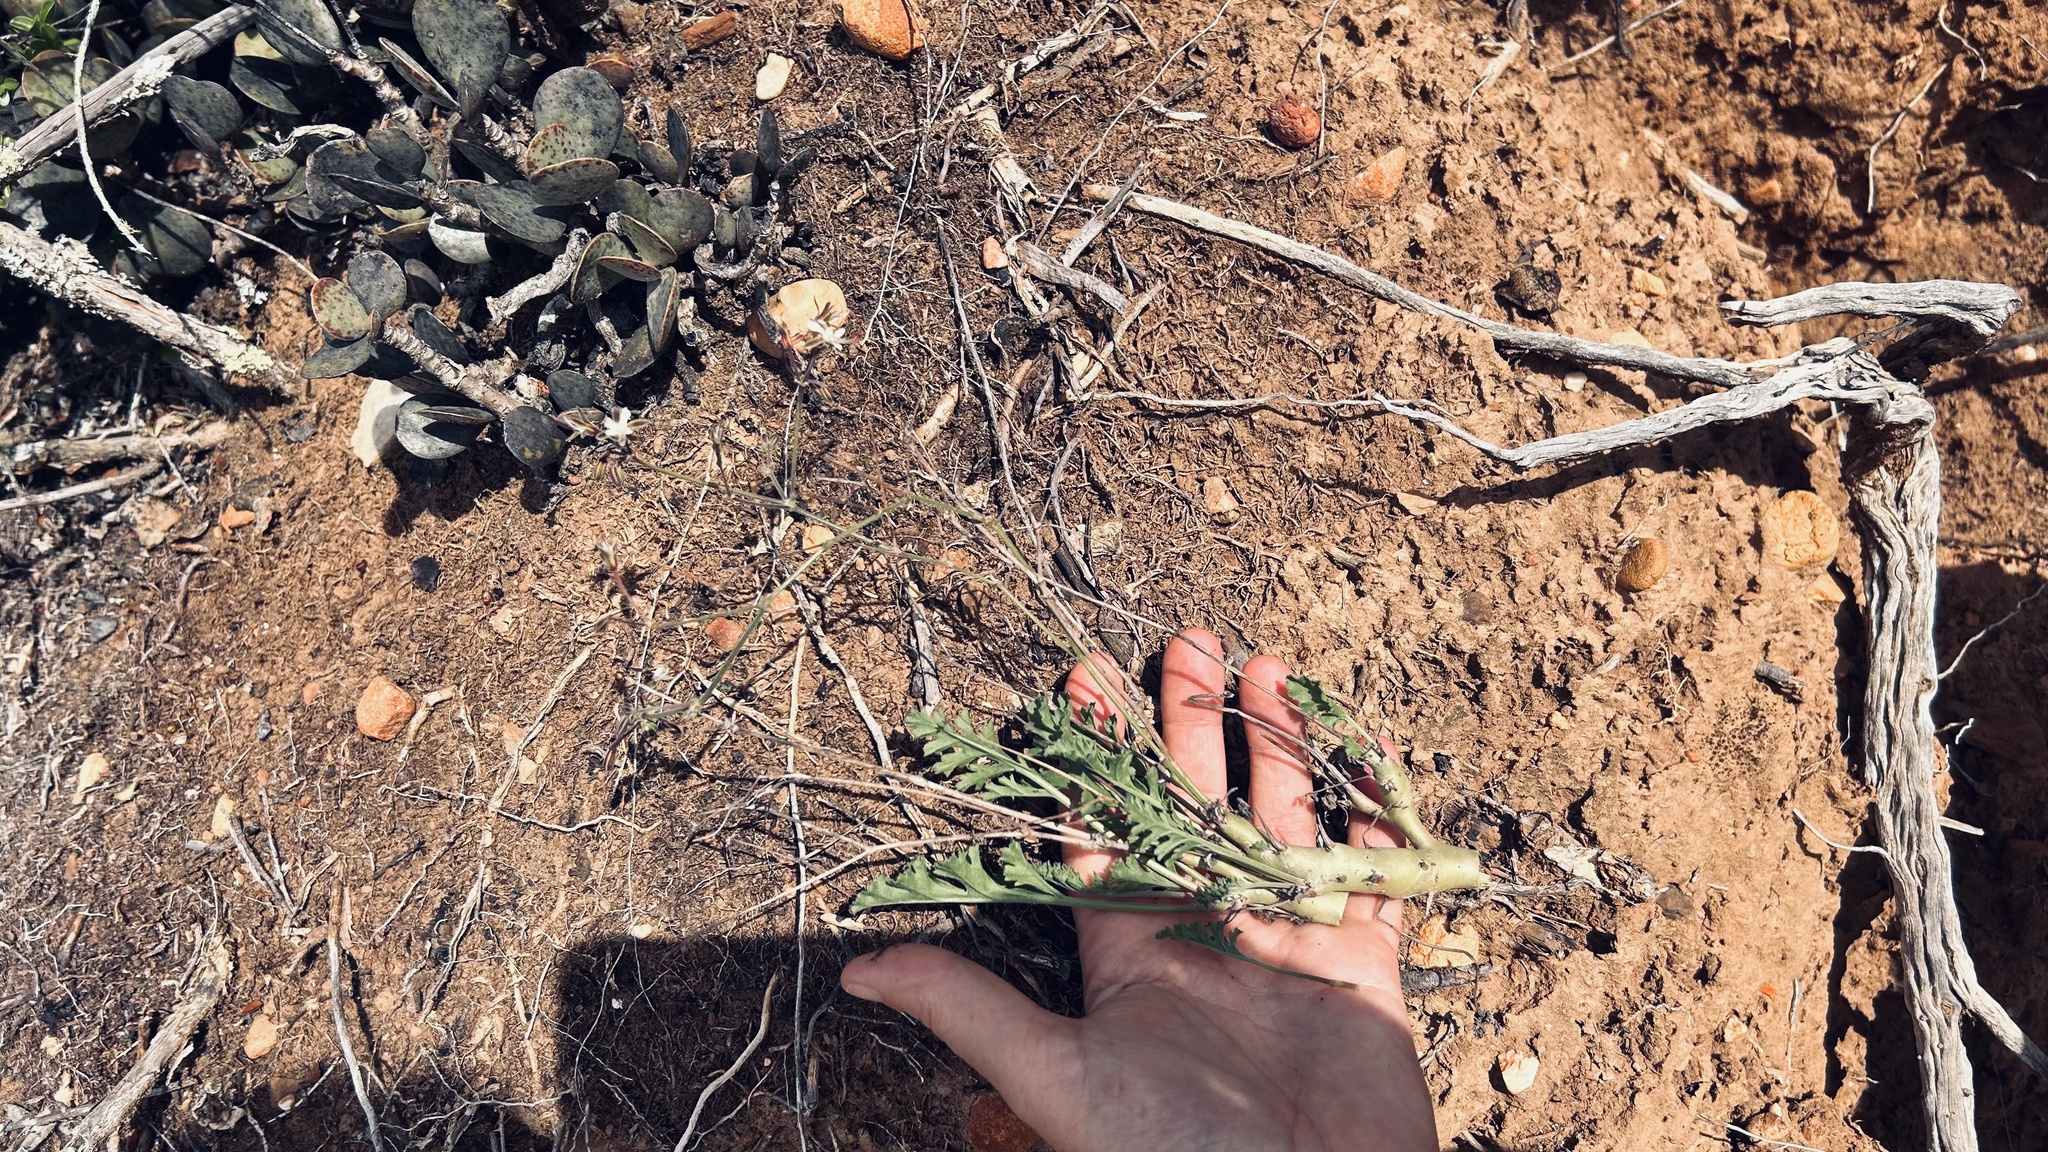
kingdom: Plantae
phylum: Tracheophyta
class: Magnoliopsida
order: Geraniales
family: Geraniaceae
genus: Pelargonium
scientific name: Pelargonium laxum
